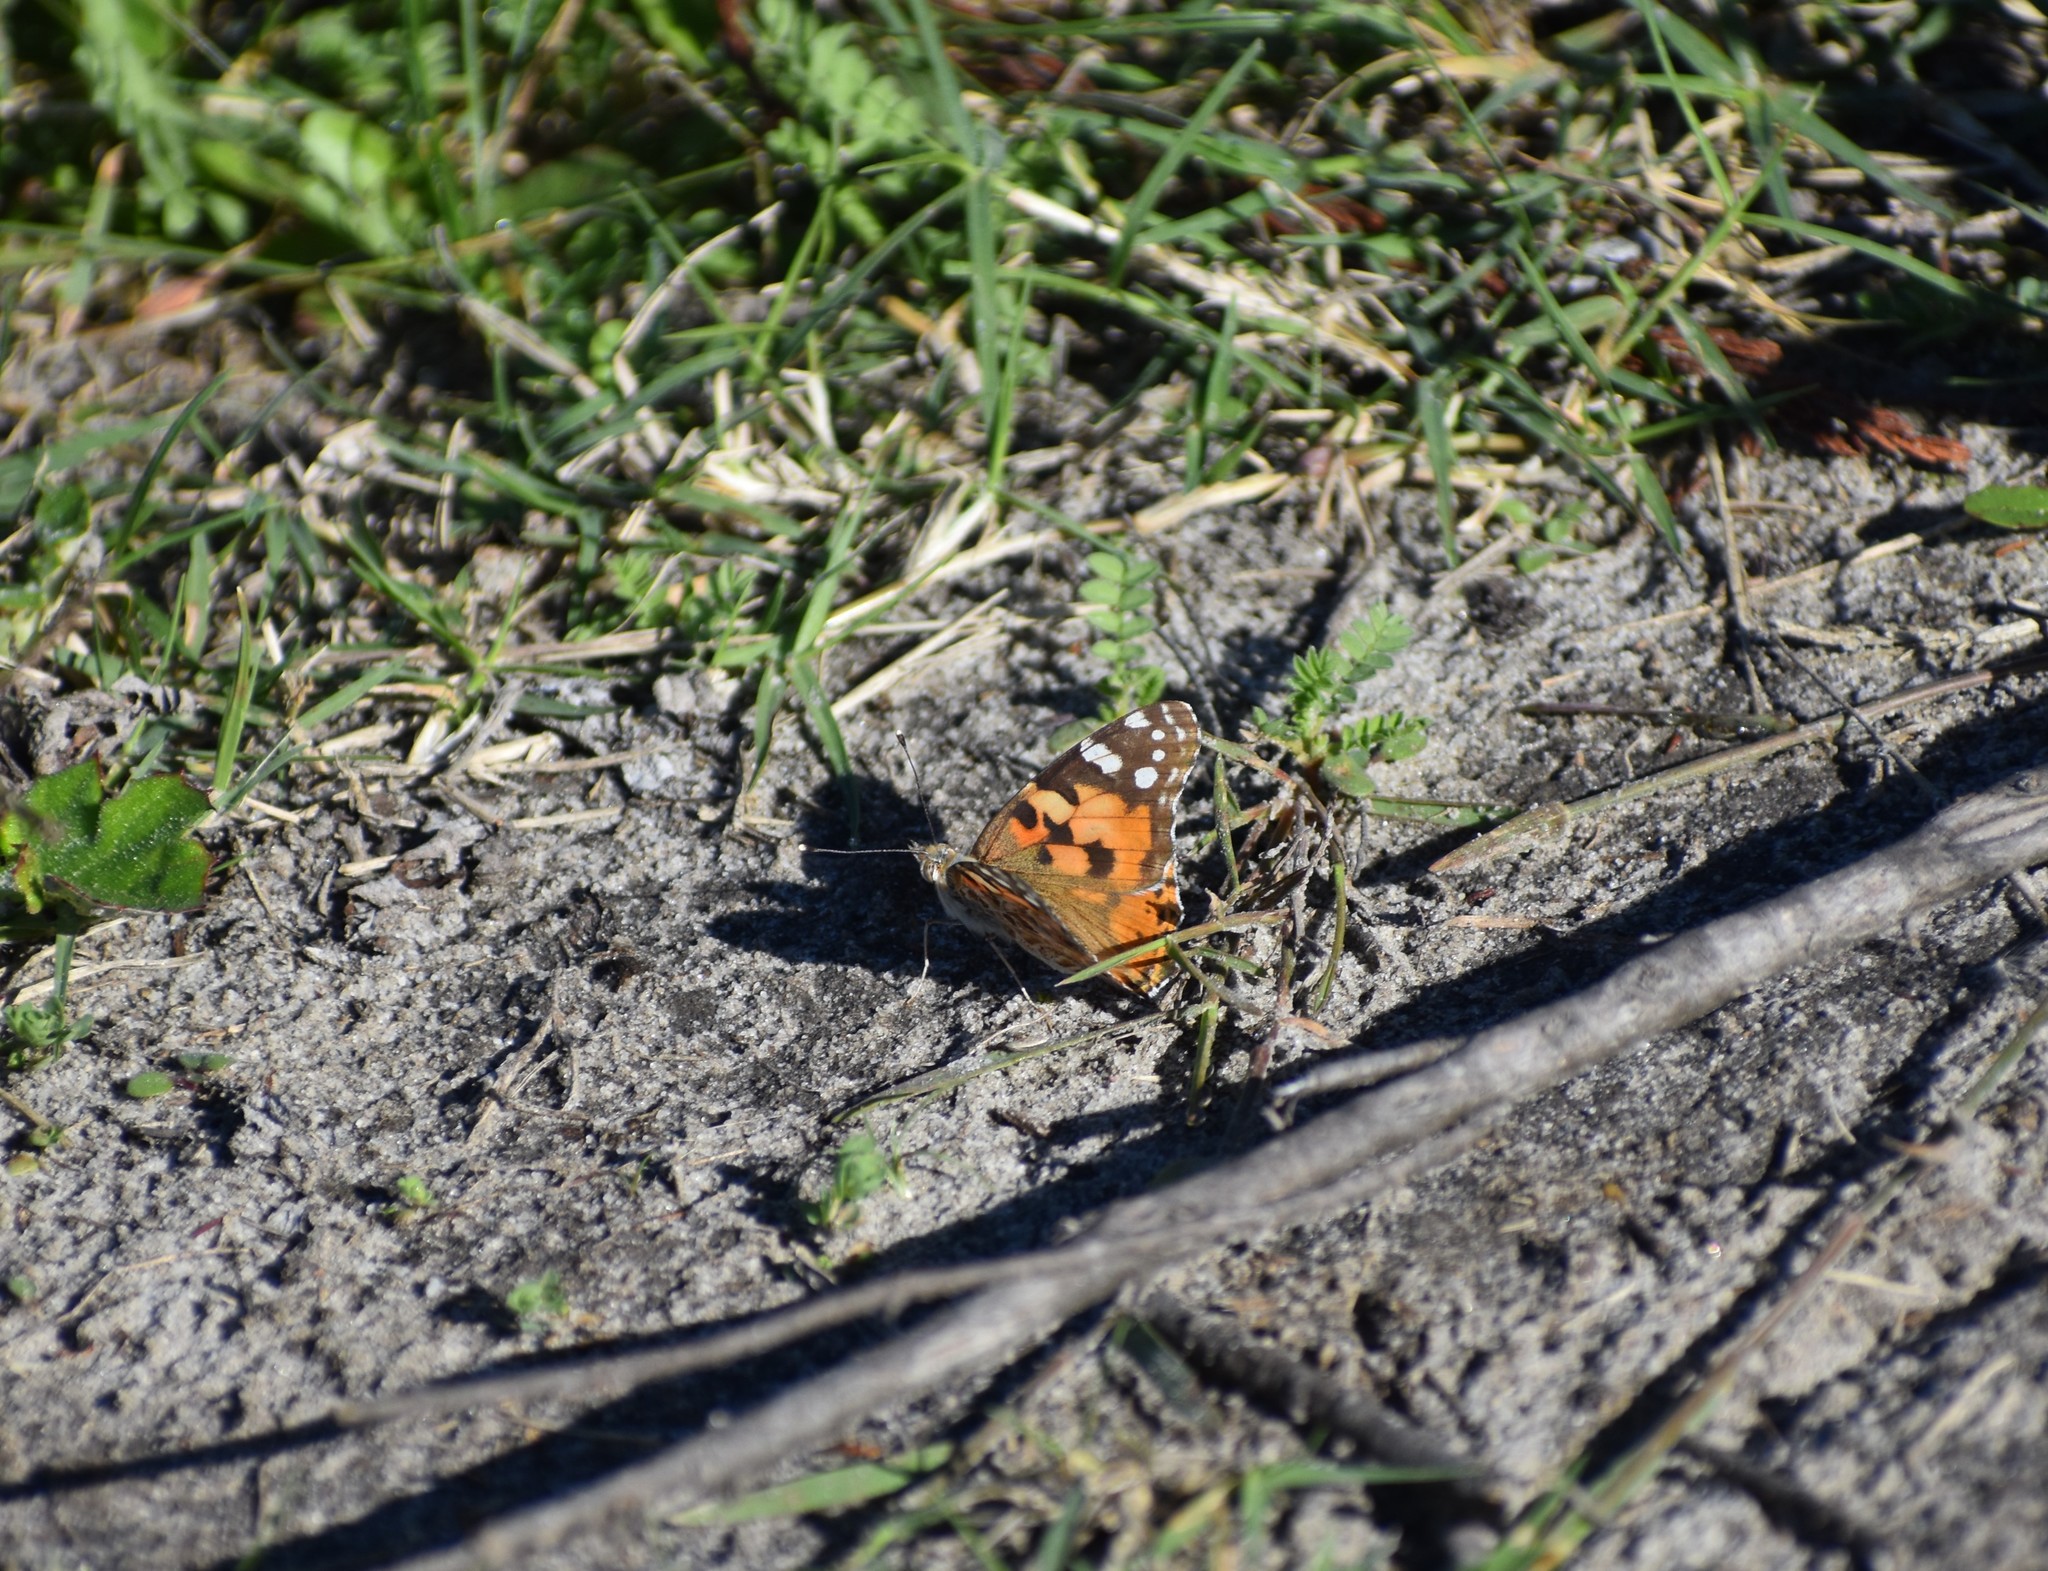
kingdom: Animalia
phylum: Arthropoda
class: Insecta
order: Lepidoptera
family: Nymphalidae
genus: Vanessa
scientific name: Vanessa cardui
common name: Painted lady
